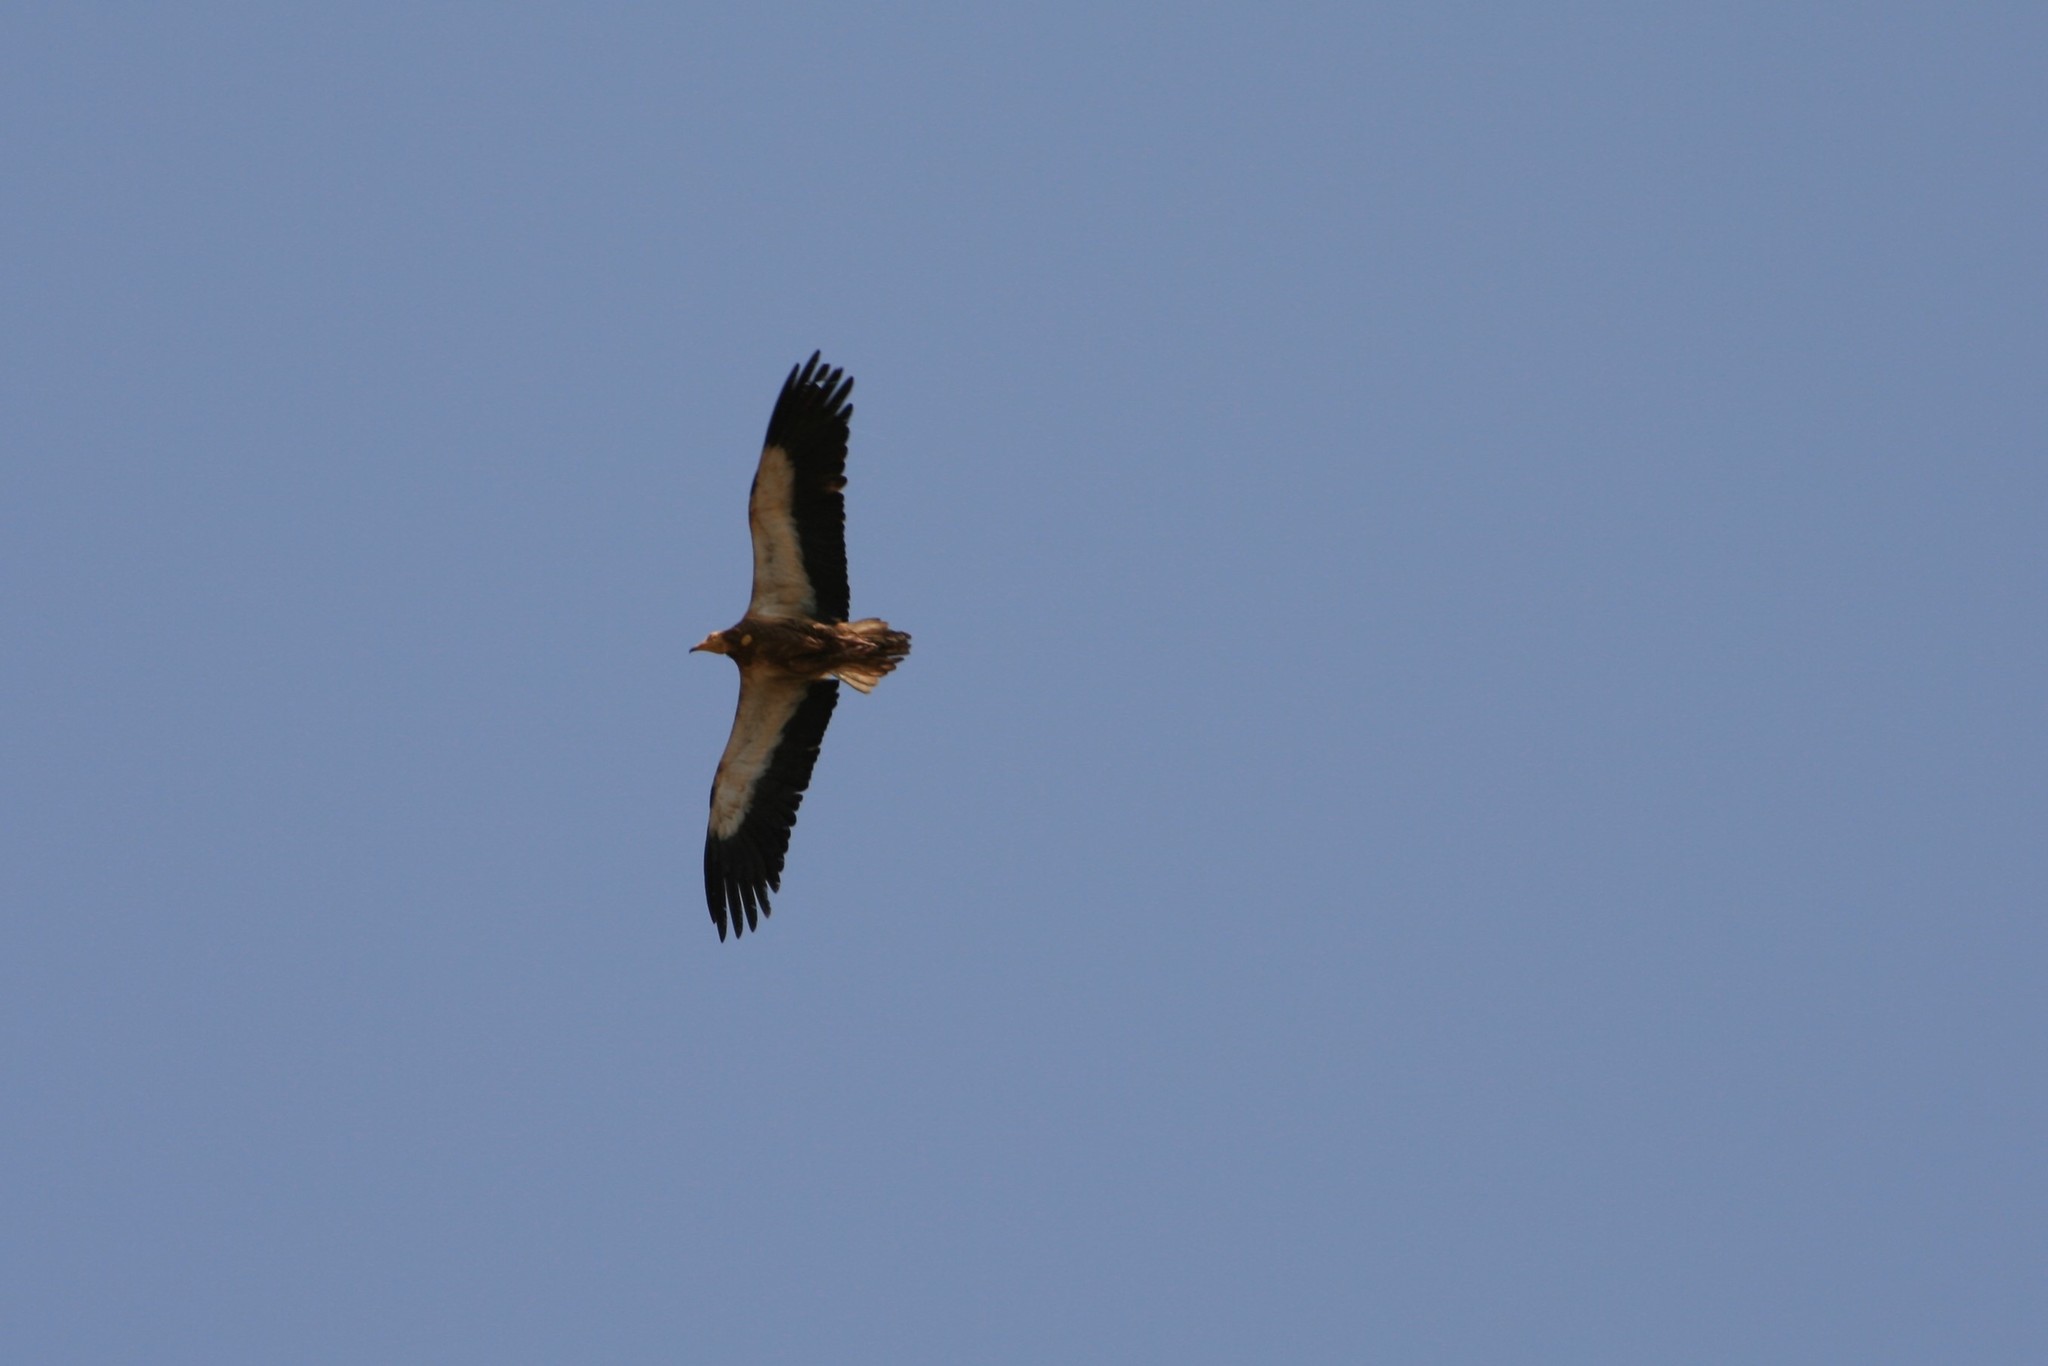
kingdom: Animalia
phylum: Chordata
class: Aves
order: Accipitriformes
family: Accipitridae
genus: Neophron
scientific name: Neophron percnopterus
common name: Egyptian vulture
